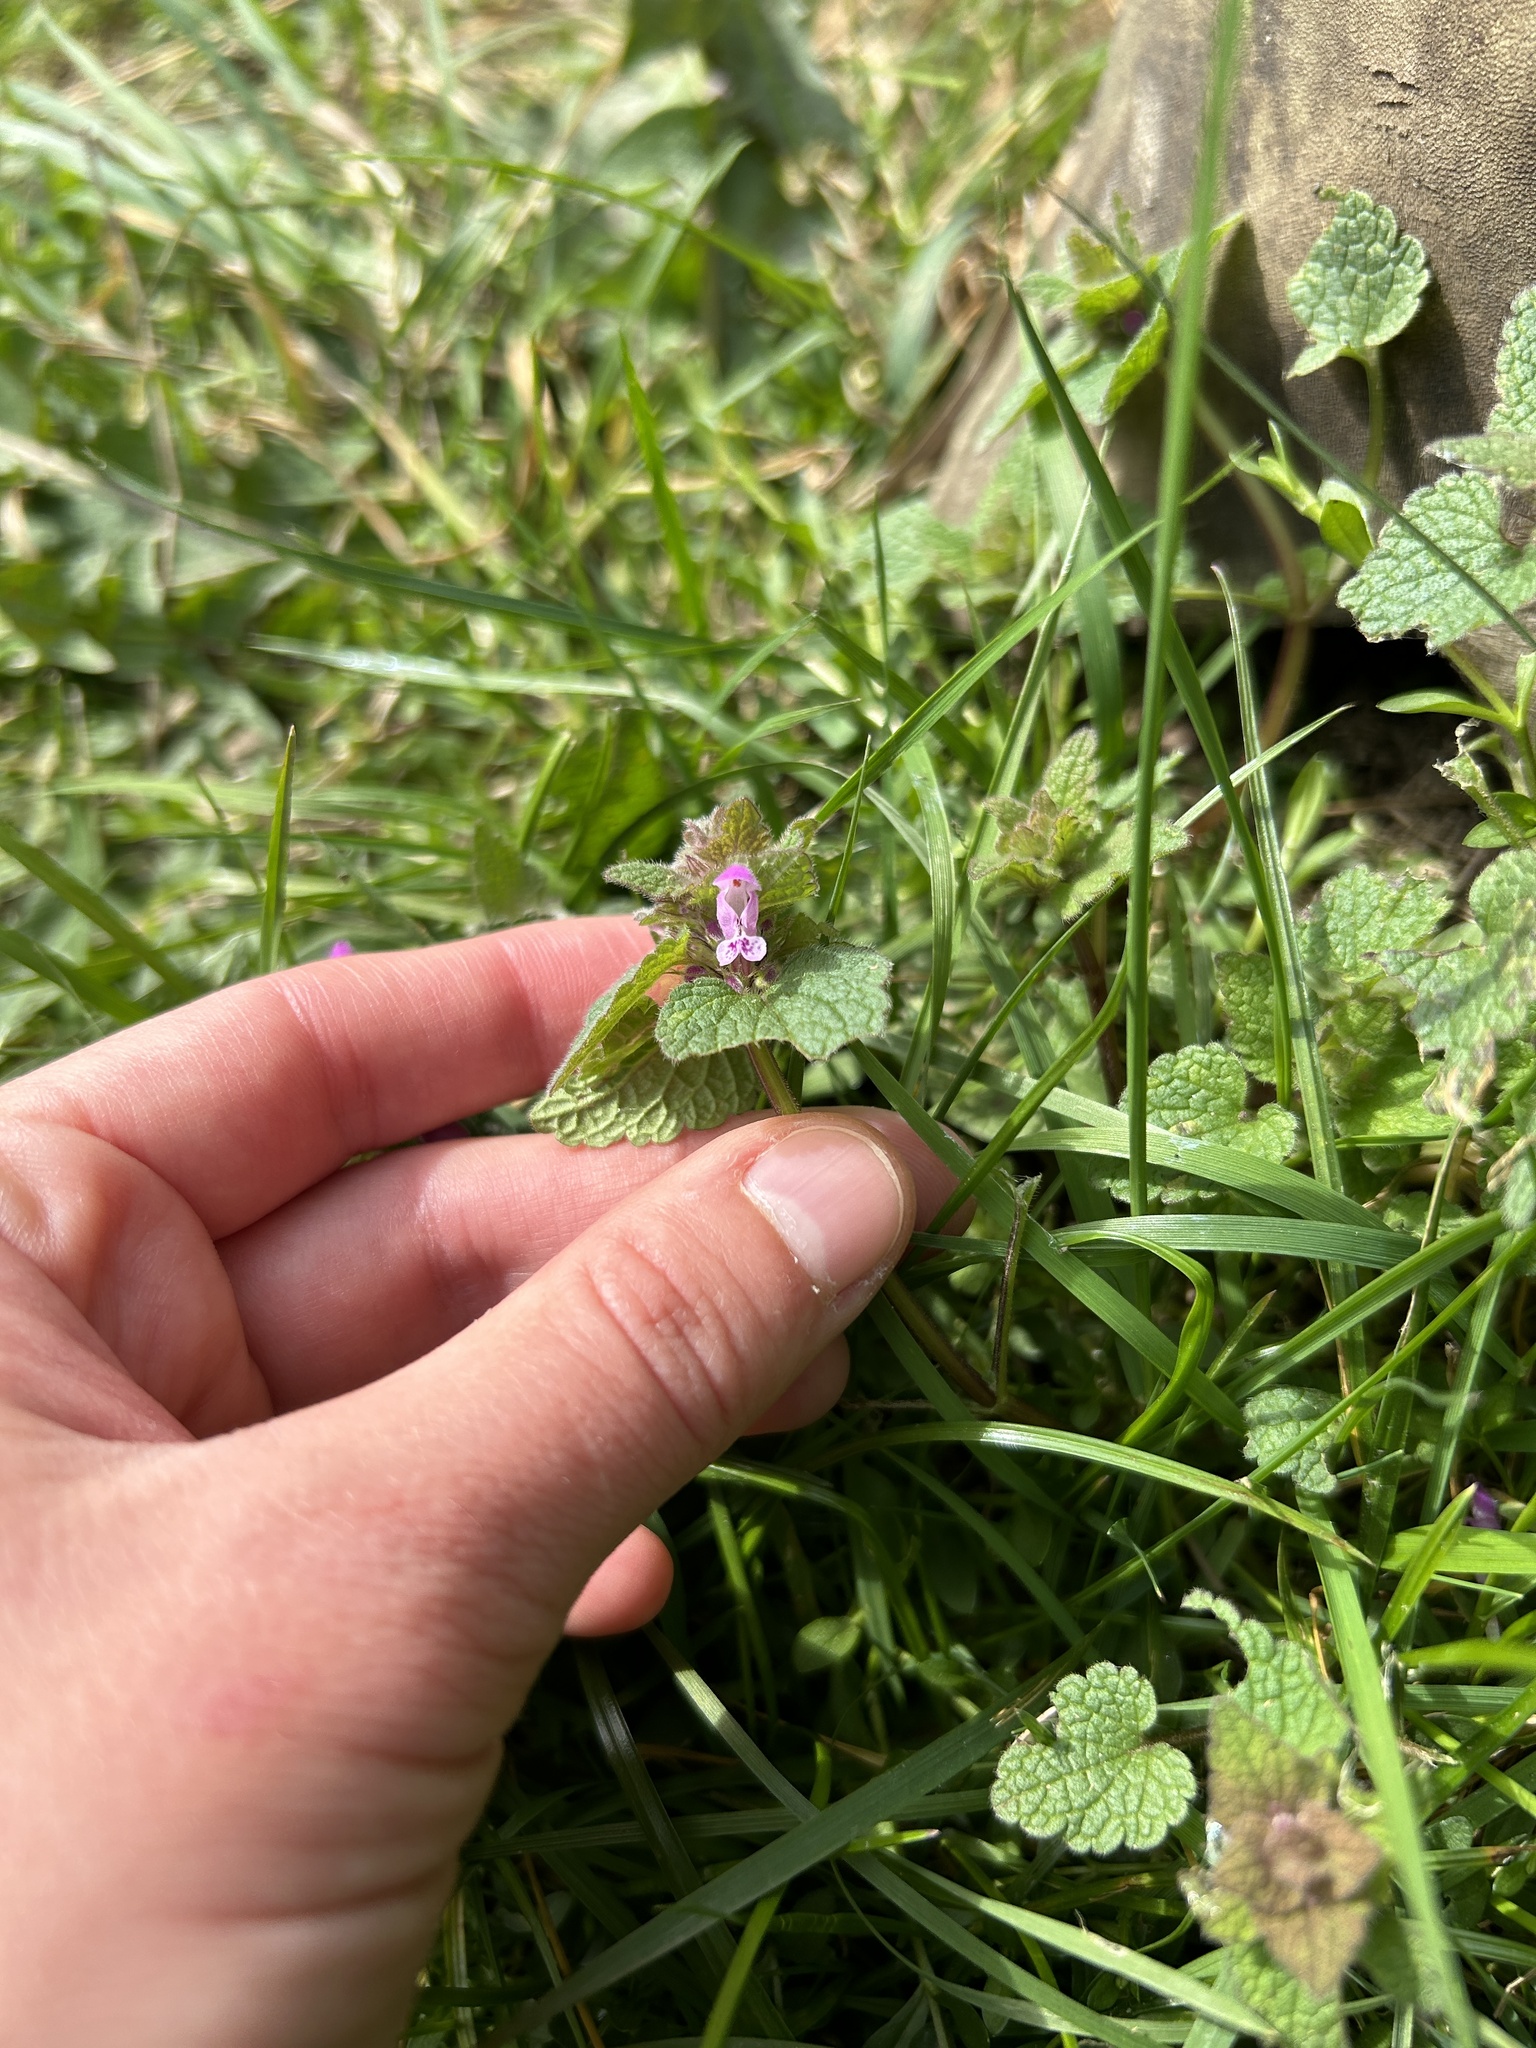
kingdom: Plantae
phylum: Tracheophyta
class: Magnoliopsida
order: Lamiales
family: Lamiaceae
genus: Lamium
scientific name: Lamium purpureum
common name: Red dead-nettle
